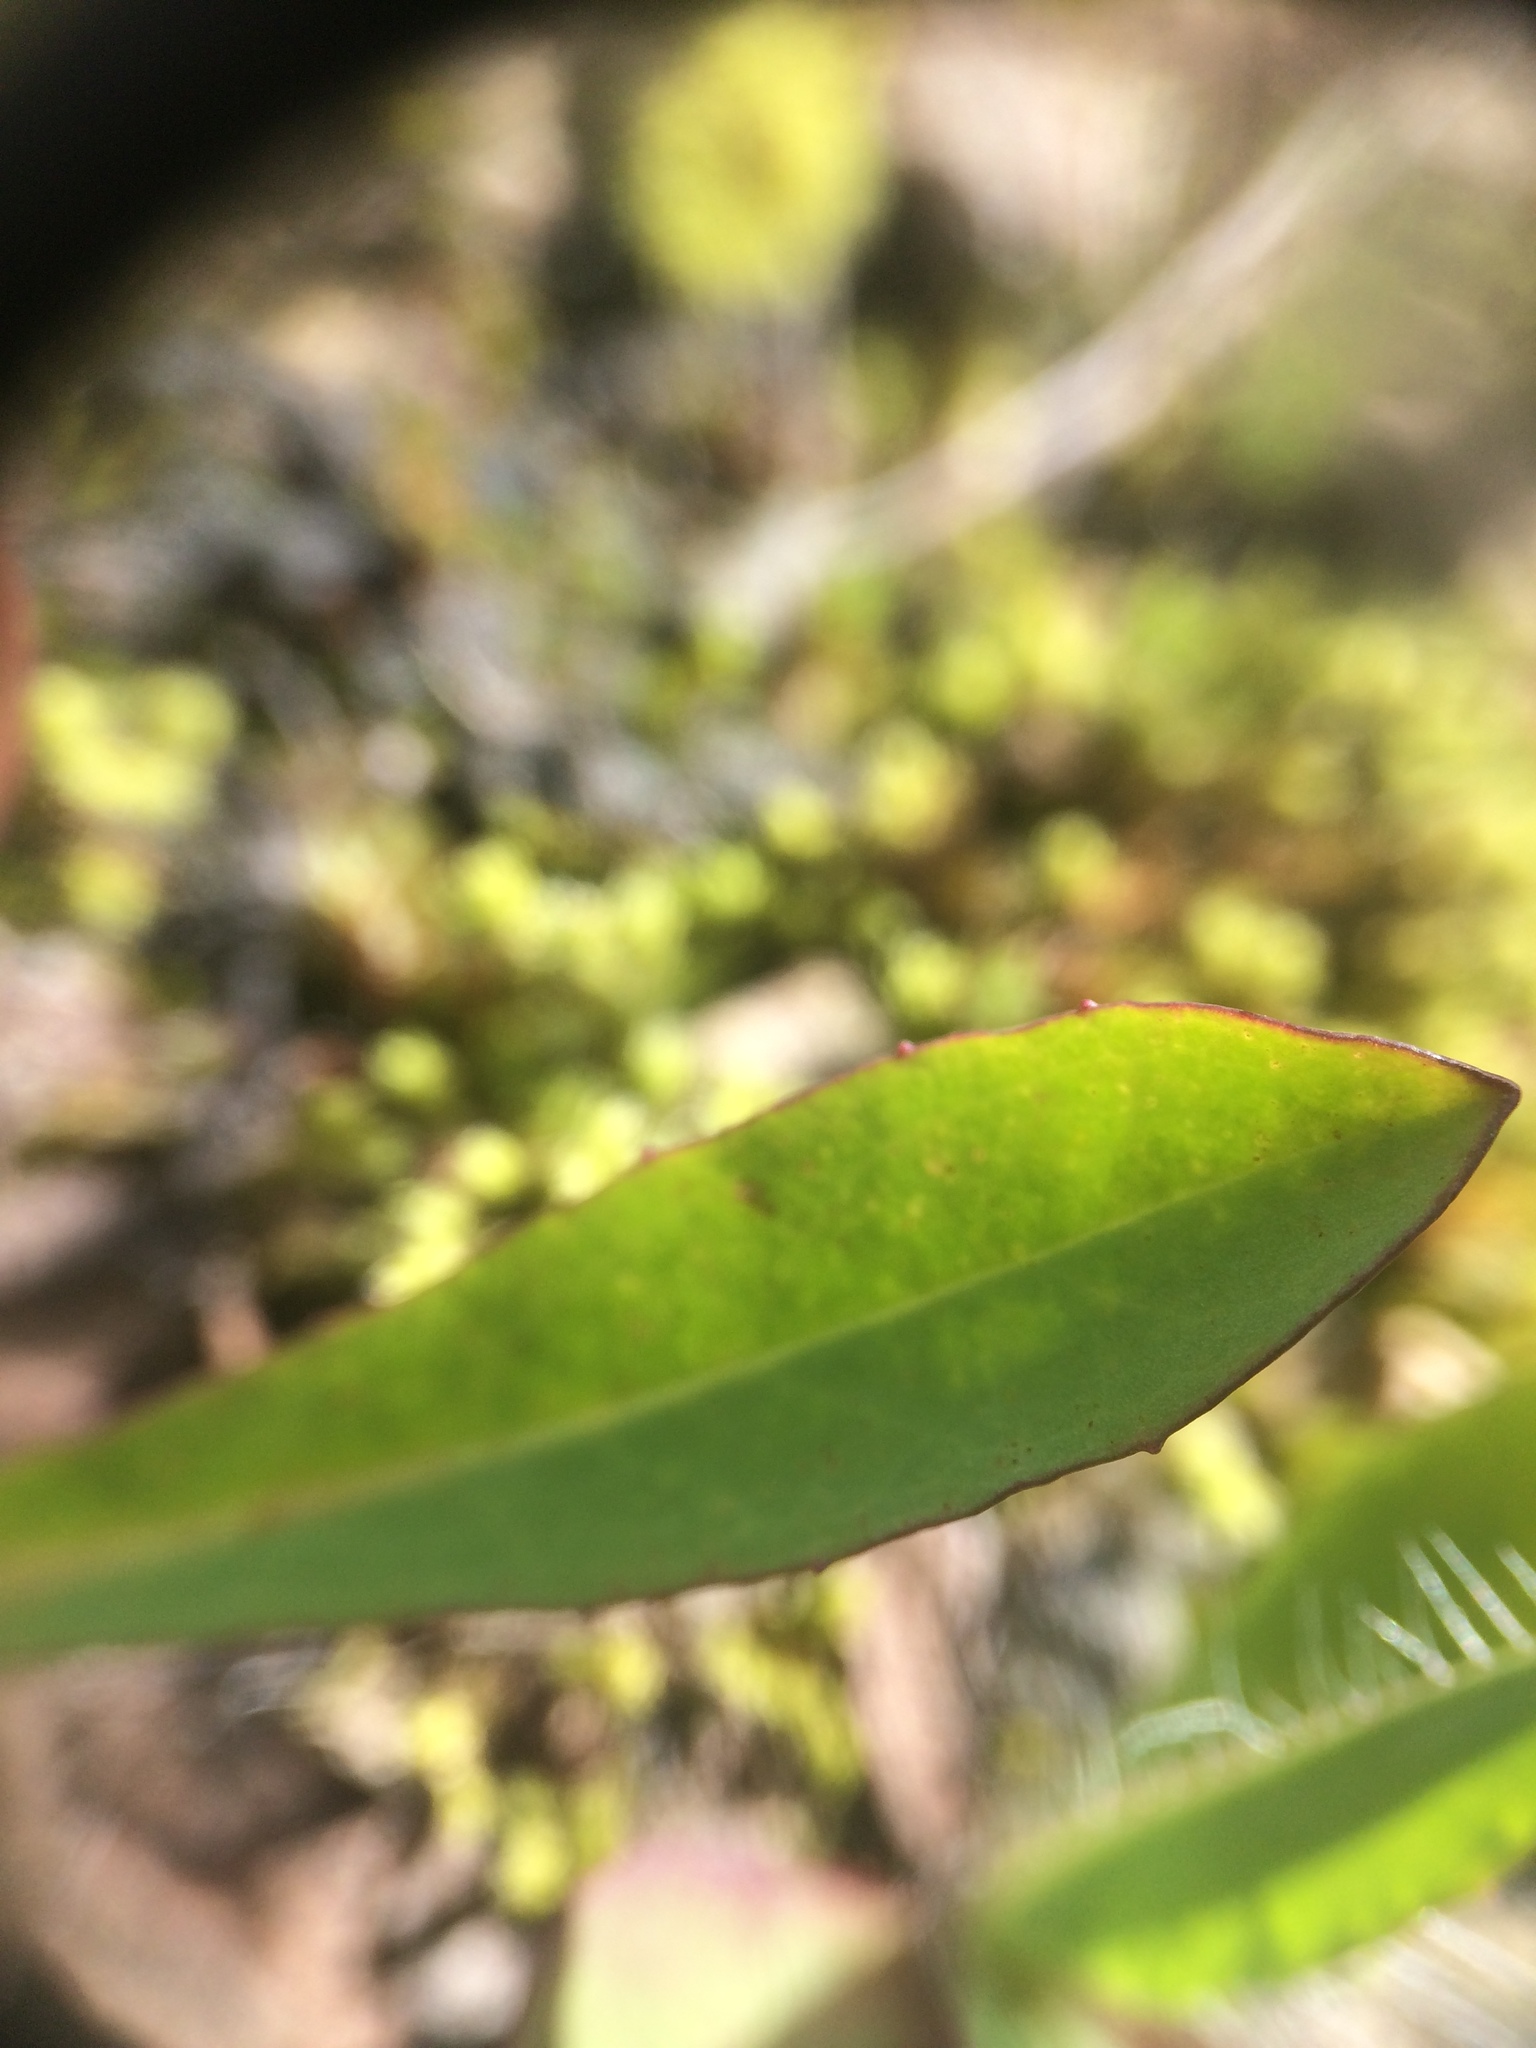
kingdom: Plantae
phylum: Tracheophyta
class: Magnoliopsida
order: Asterales
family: Asteraceae
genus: Pilosella
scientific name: Pilosella piloselloides
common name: Glaucous king-devil
